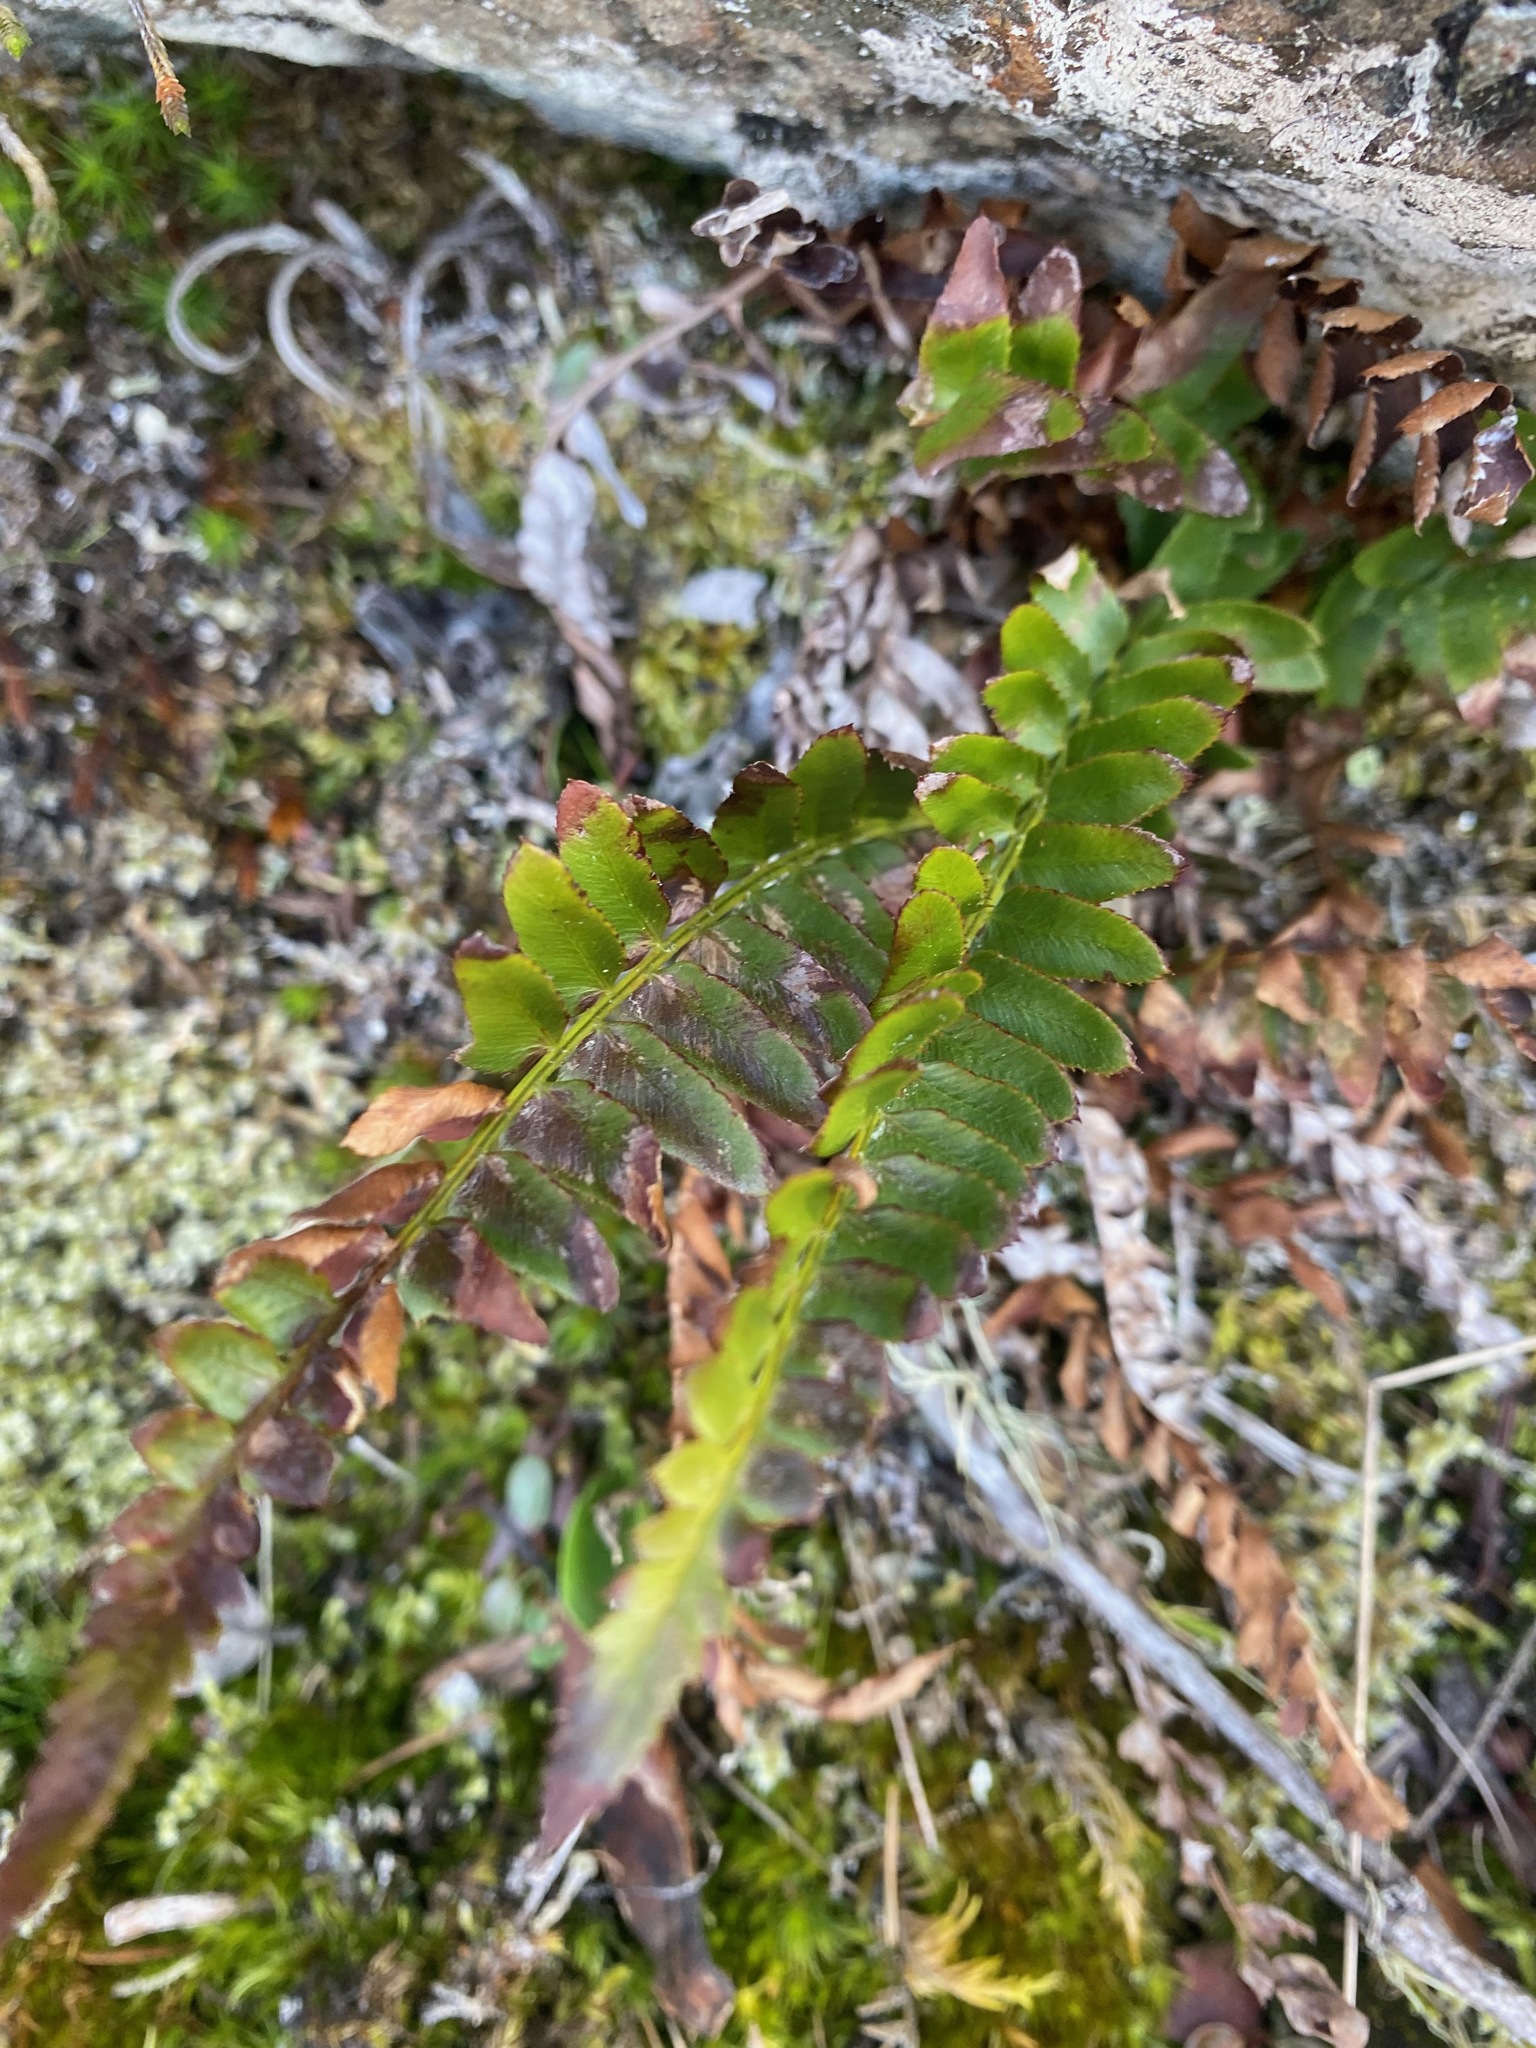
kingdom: Plantae
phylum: Tracheophyta
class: Polypodiopsida
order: Polypodiales
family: Dryopteridaceae
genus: Polystichum
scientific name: Polystichum imbricans
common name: Dwarf western sword fern
